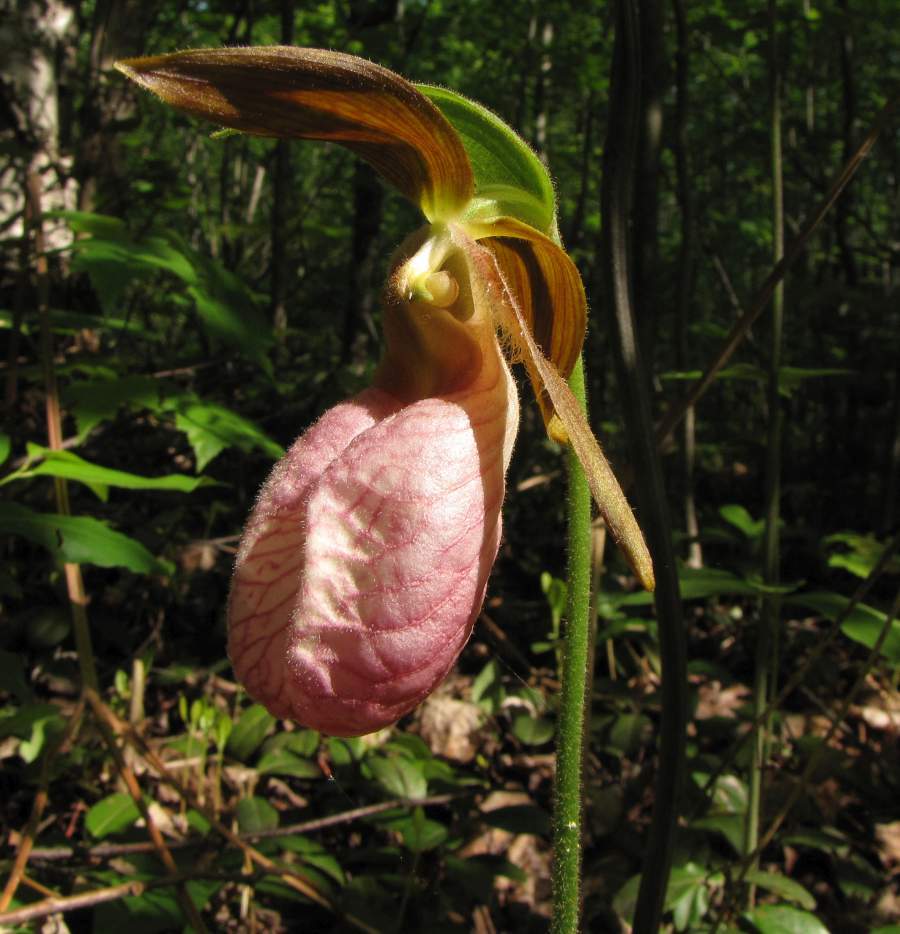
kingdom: Plantae
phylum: Tracheophyta
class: Liliopsida
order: Asparagales
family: Orchidaceae
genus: Cypripedium
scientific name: Cypripedium acaule
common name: Pink lady's-slipper
